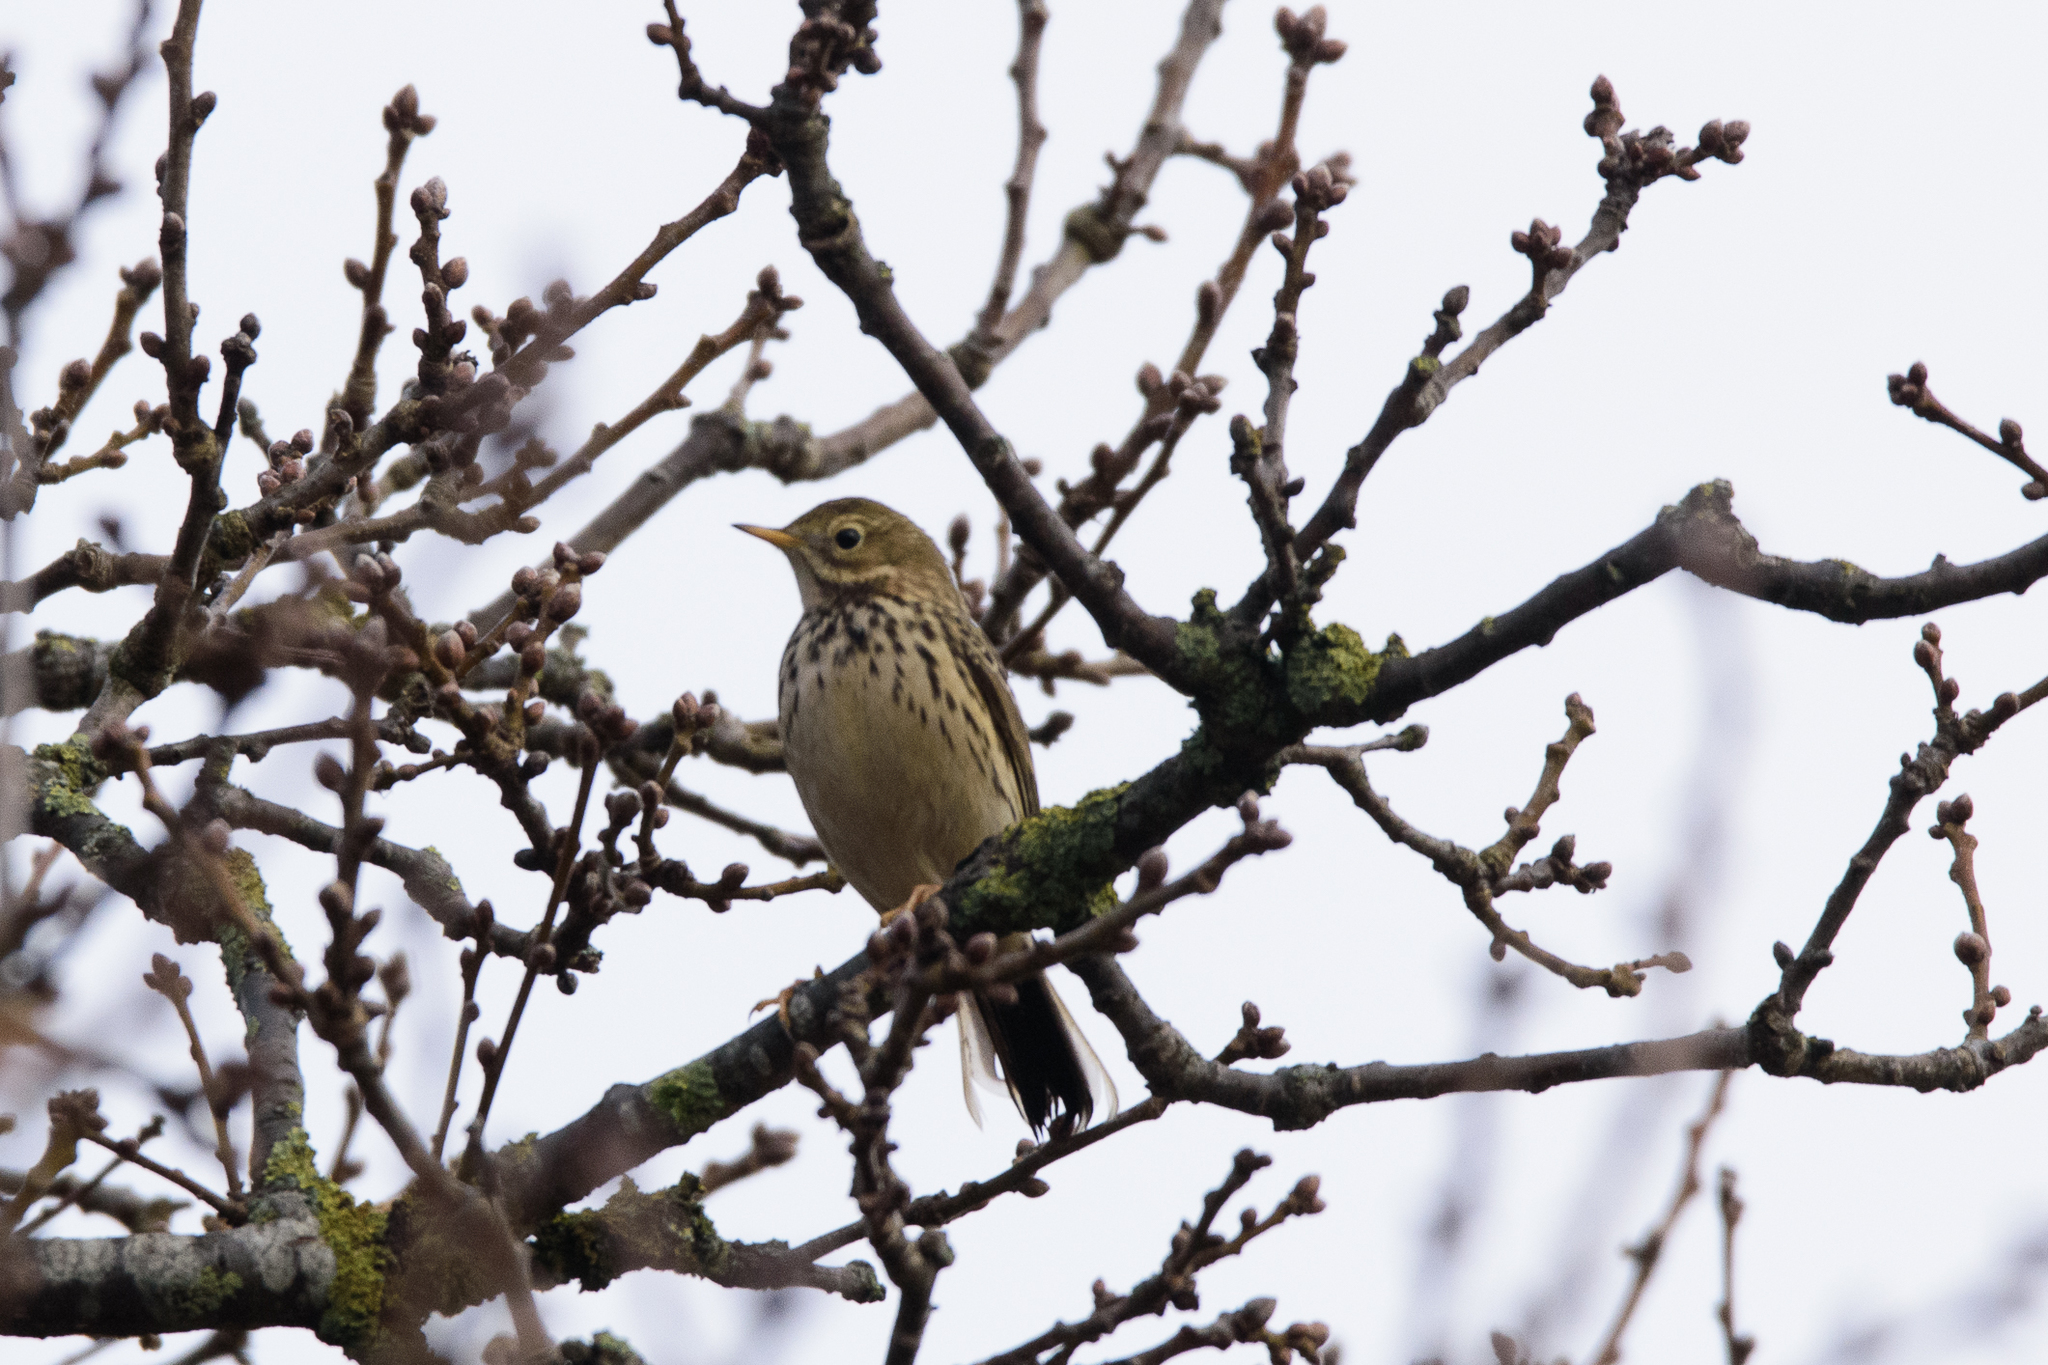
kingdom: Animalia
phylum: Chordata
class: Aves
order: Passeriformes
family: Motacillidae
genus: Anthus
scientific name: Anthus pratensis
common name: Meadow pipit
